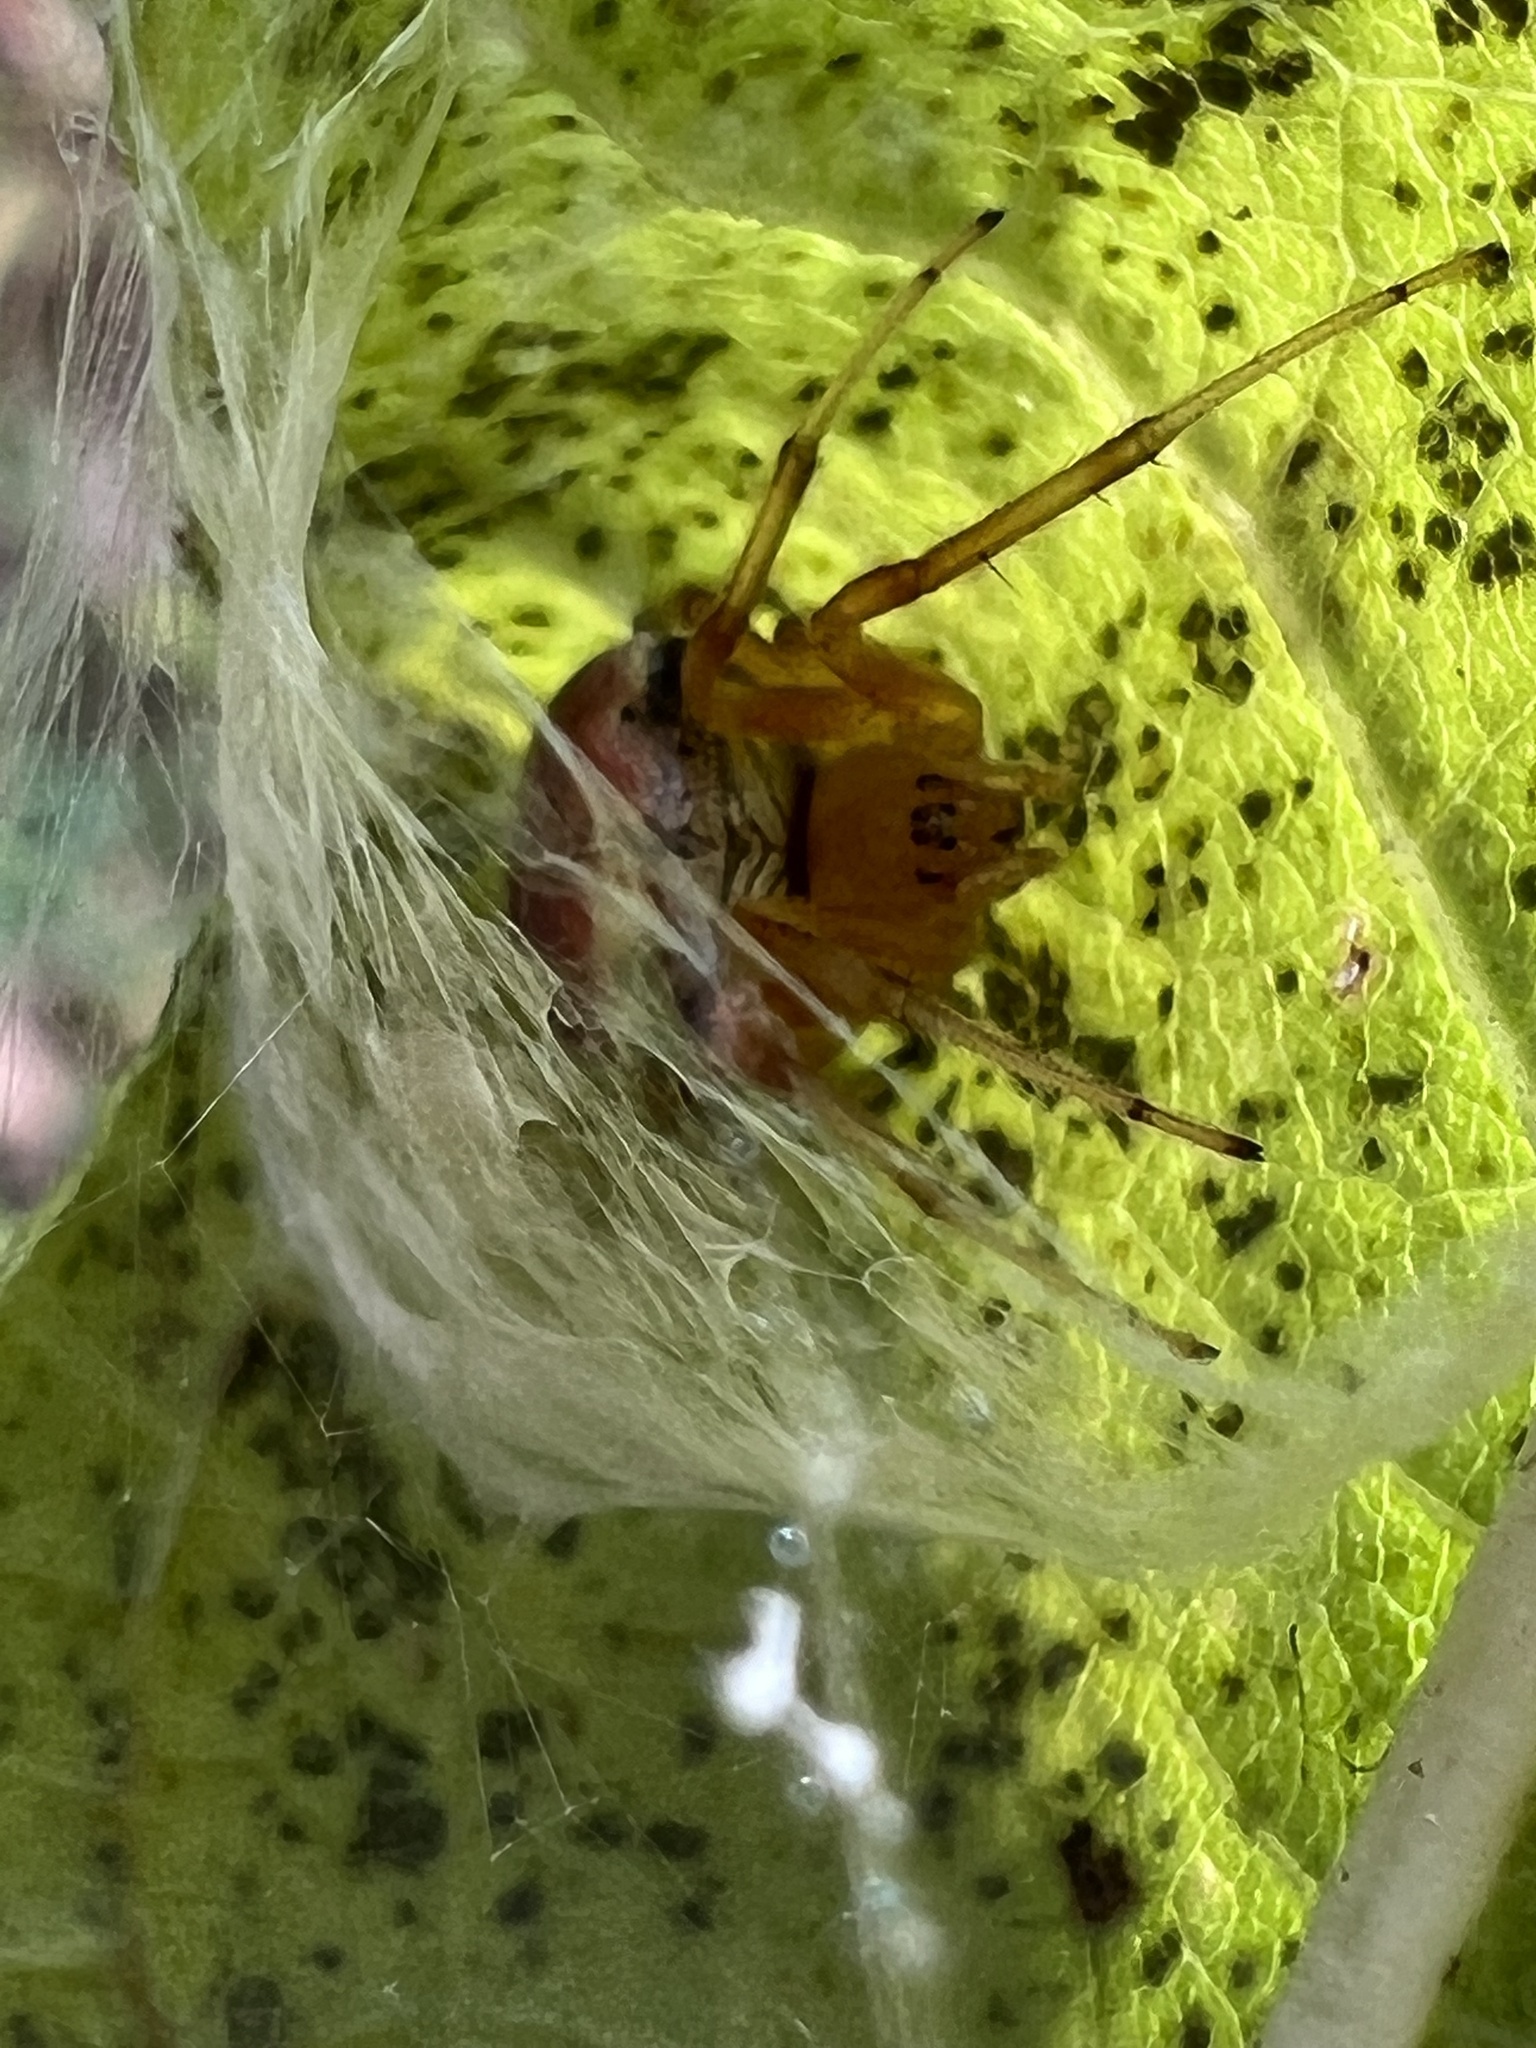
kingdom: Animalia
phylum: Arthropoda
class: Arachnida
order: Araneae
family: Araneidae
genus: Araneus
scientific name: Araneus thaddeus
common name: Lattice orbweaver
